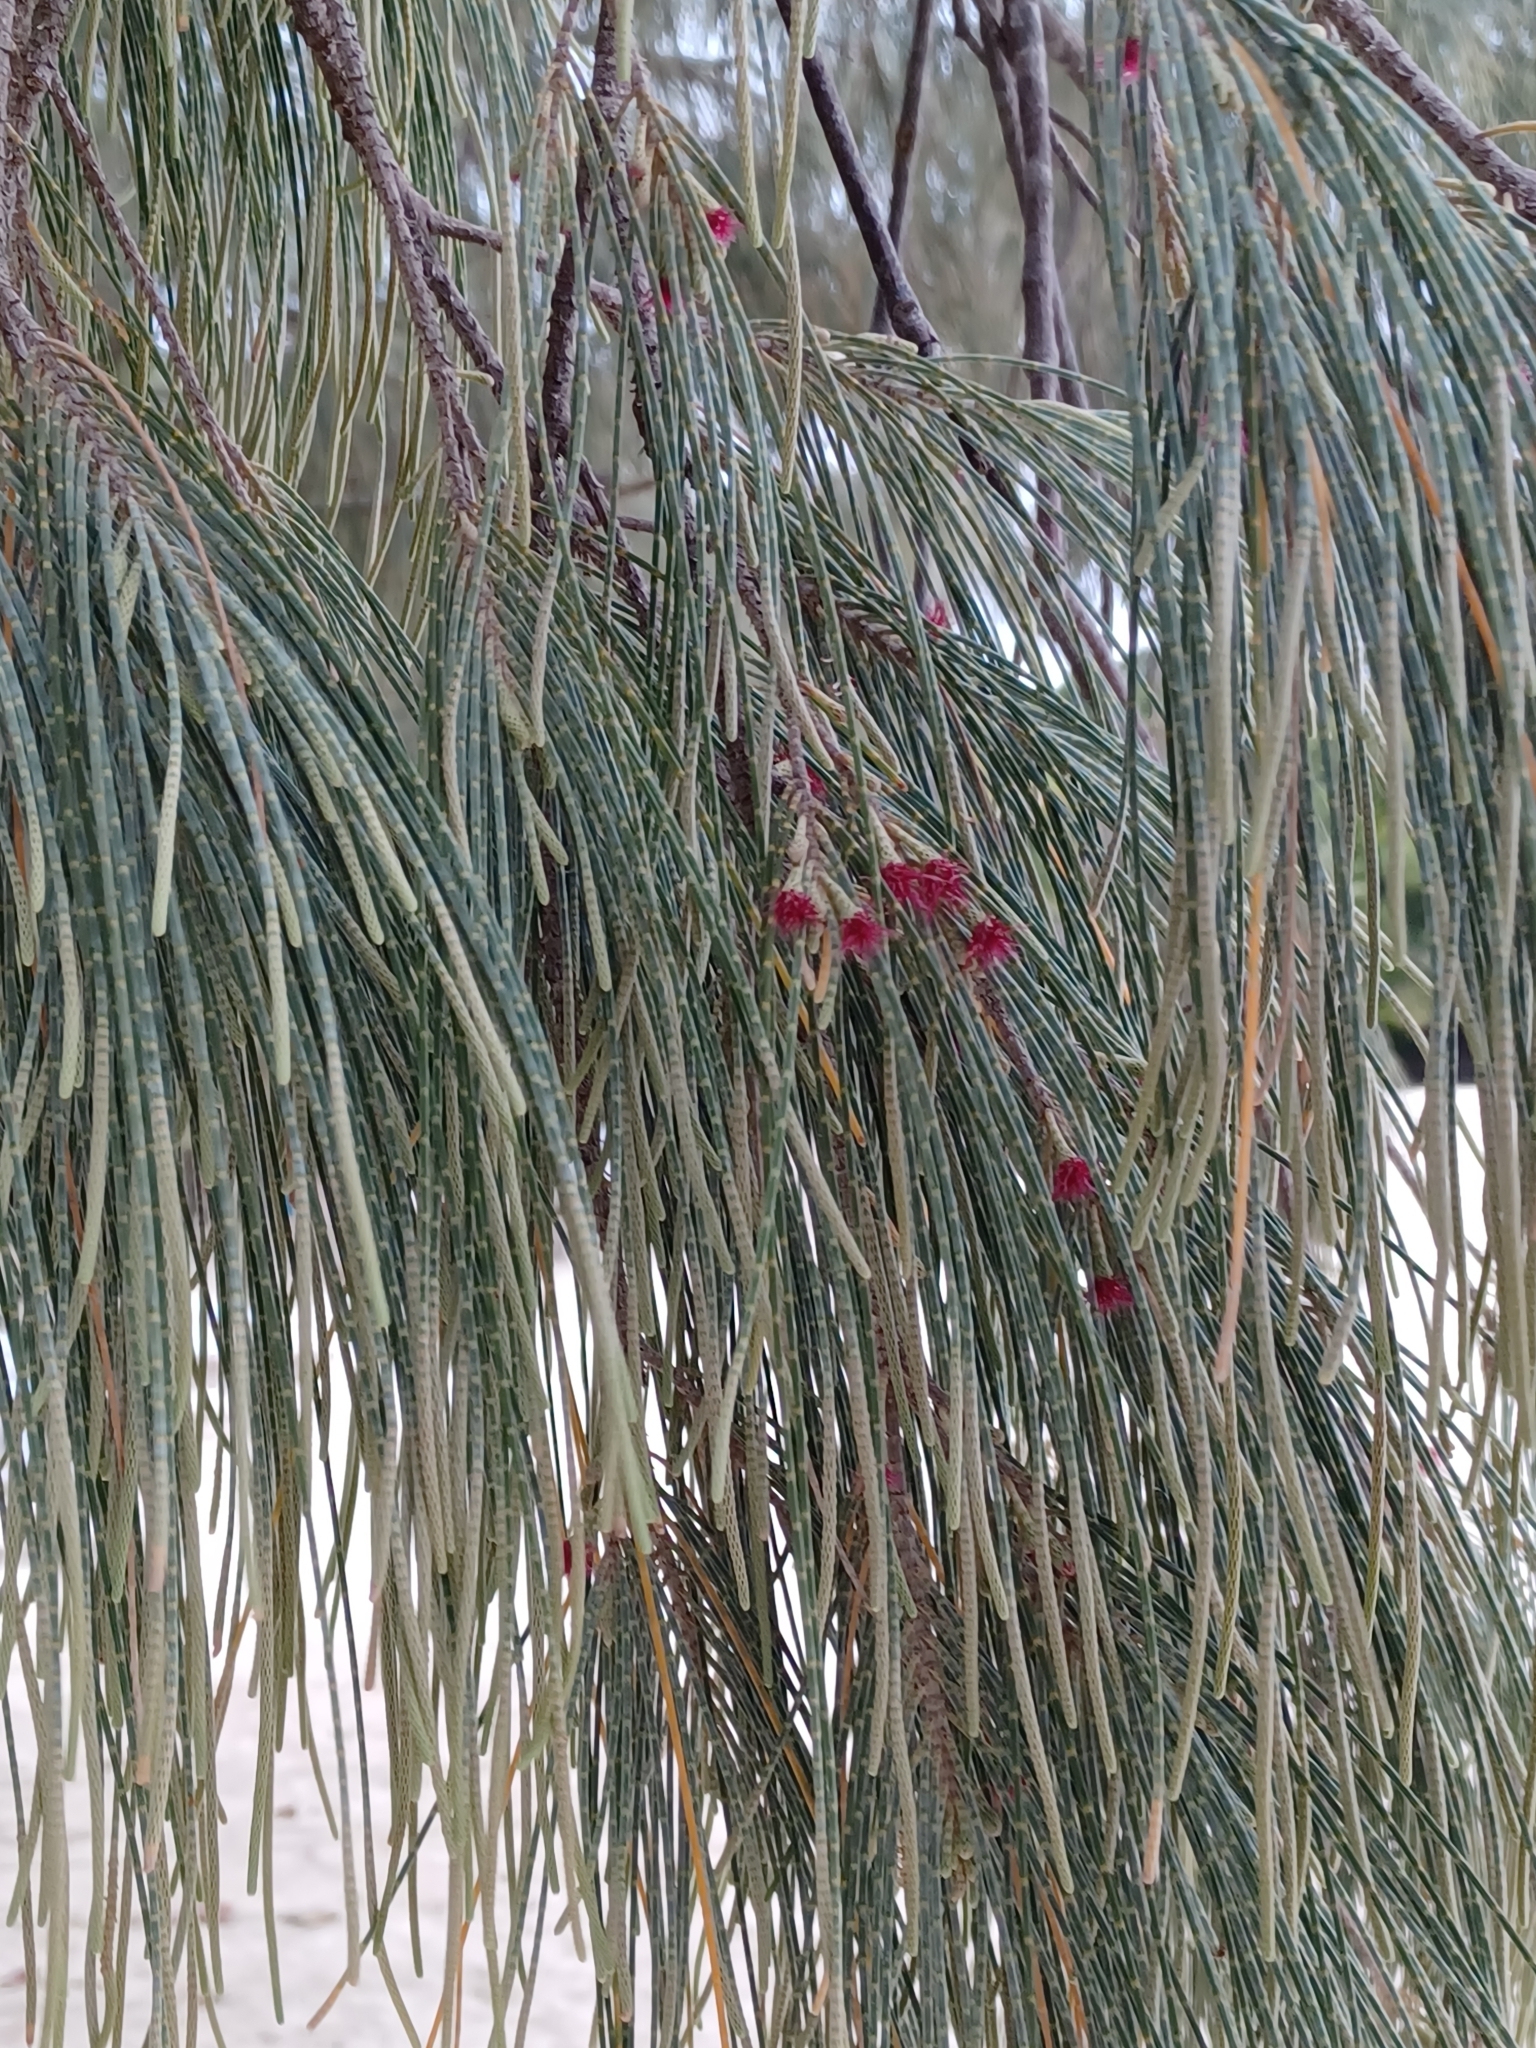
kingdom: Plantae
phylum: Tracheophyta
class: Magnoliopsida
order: Fagales
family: Casuarinaceae
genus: Casuarina
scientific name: Casuarina equisetifolia
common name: Beach sheoak
